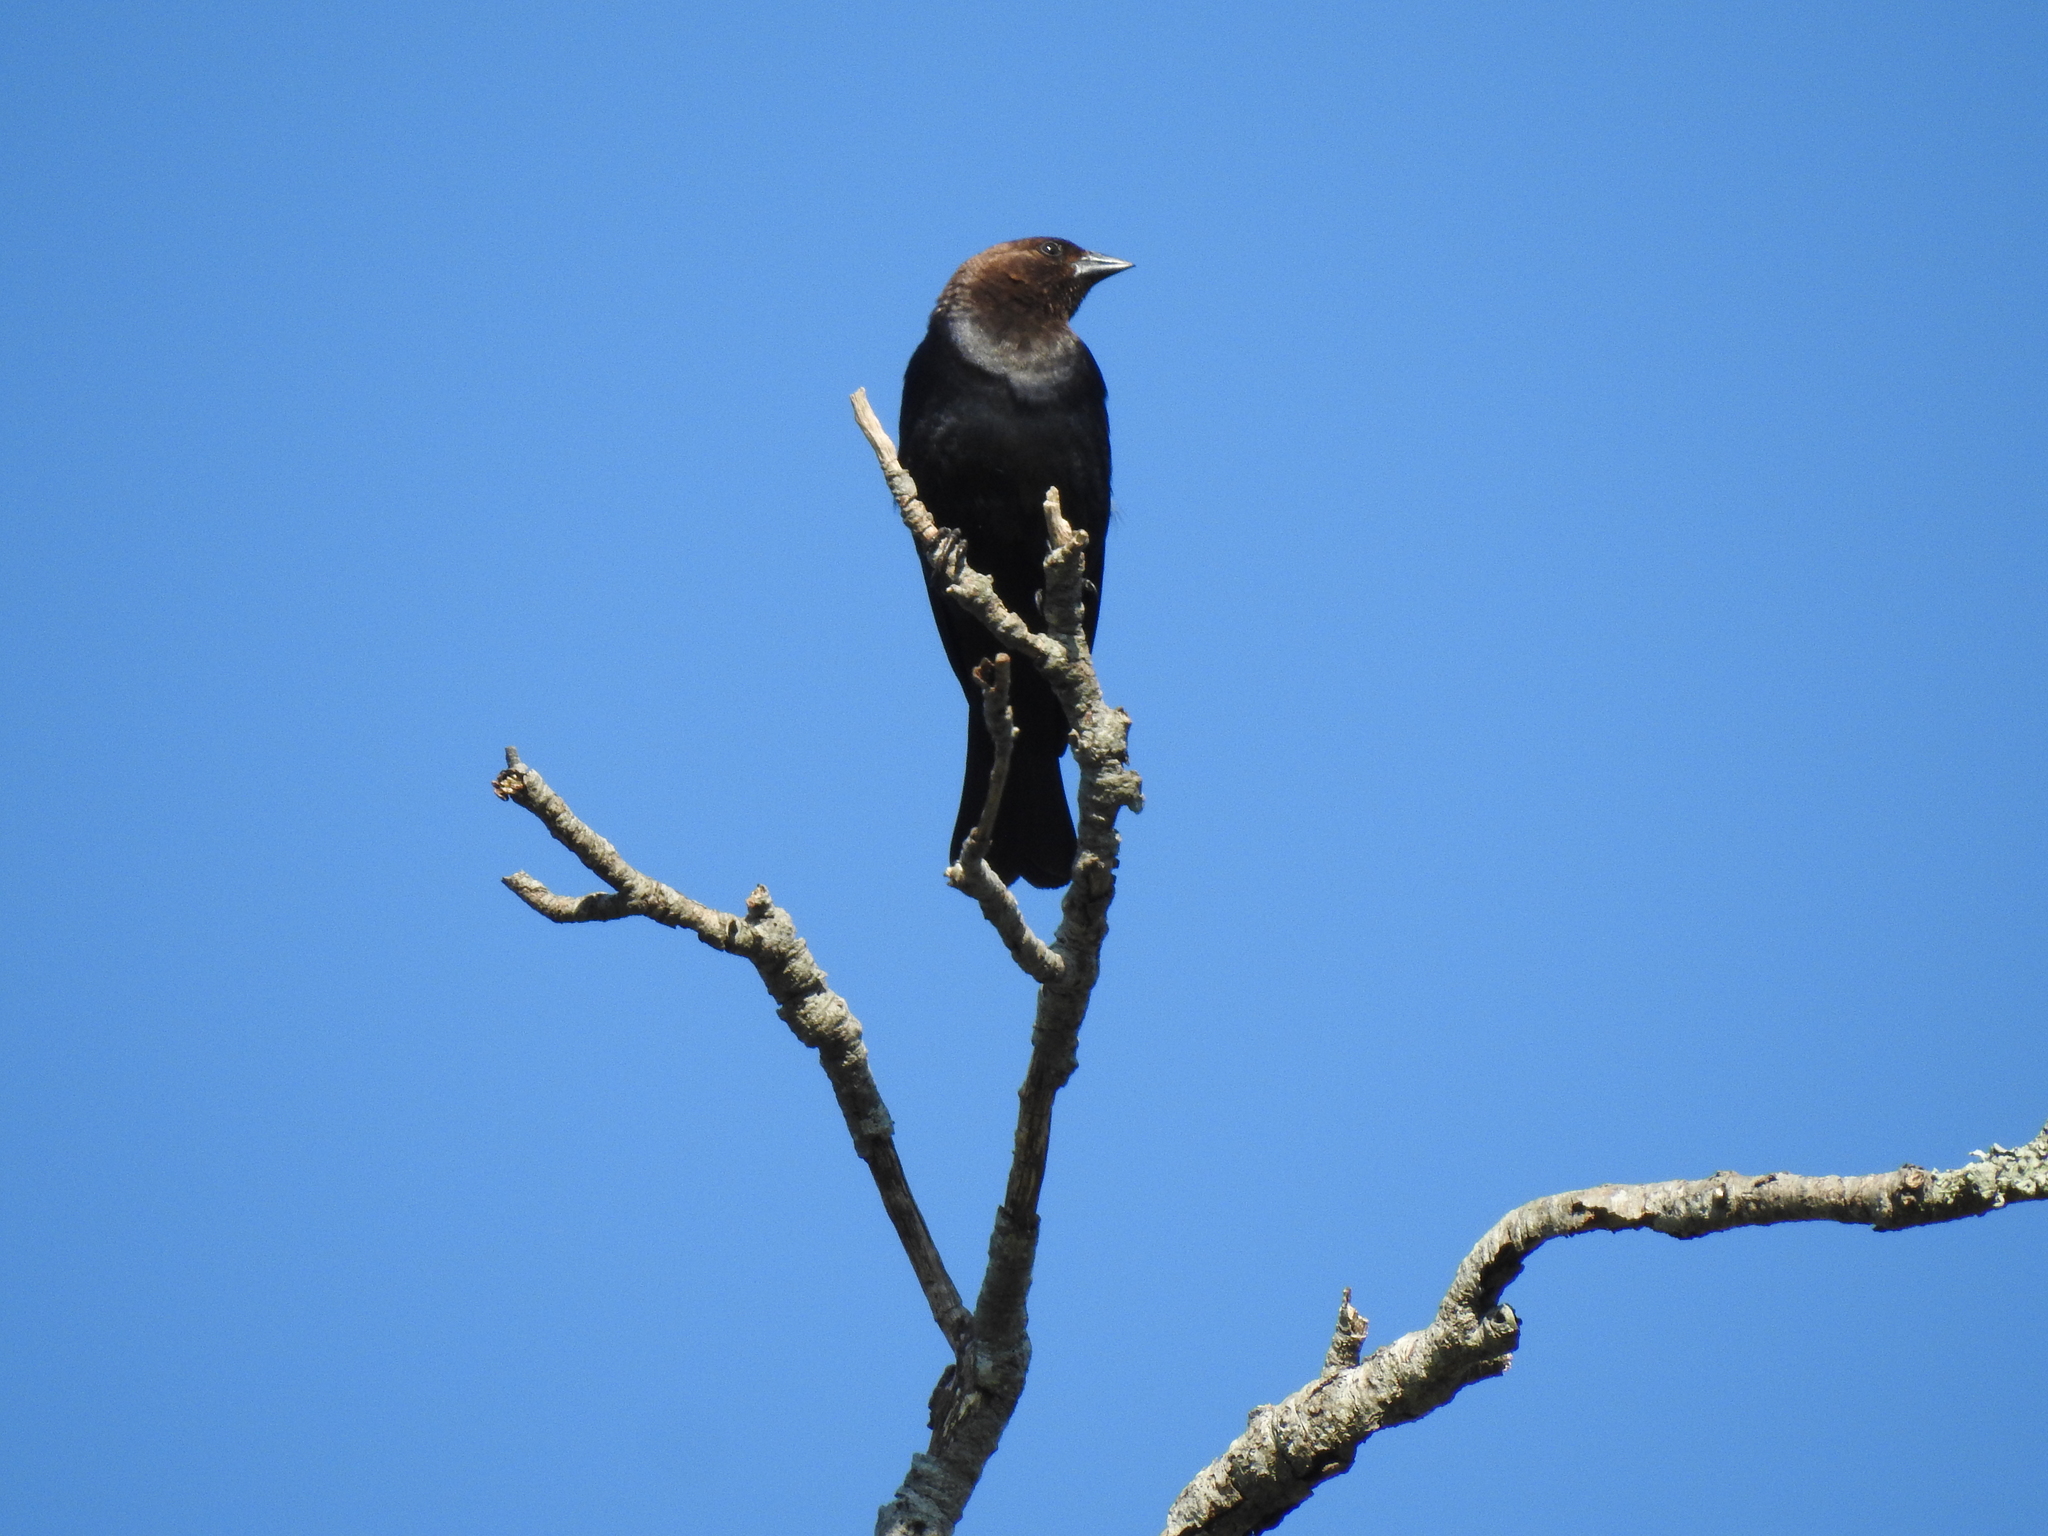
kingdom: Animalia
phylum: Chordata
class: Aves
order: Passeriformes
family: Icteridae
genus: Molothrus
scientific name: Molothrus ater
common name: Brown-headed cowbird
